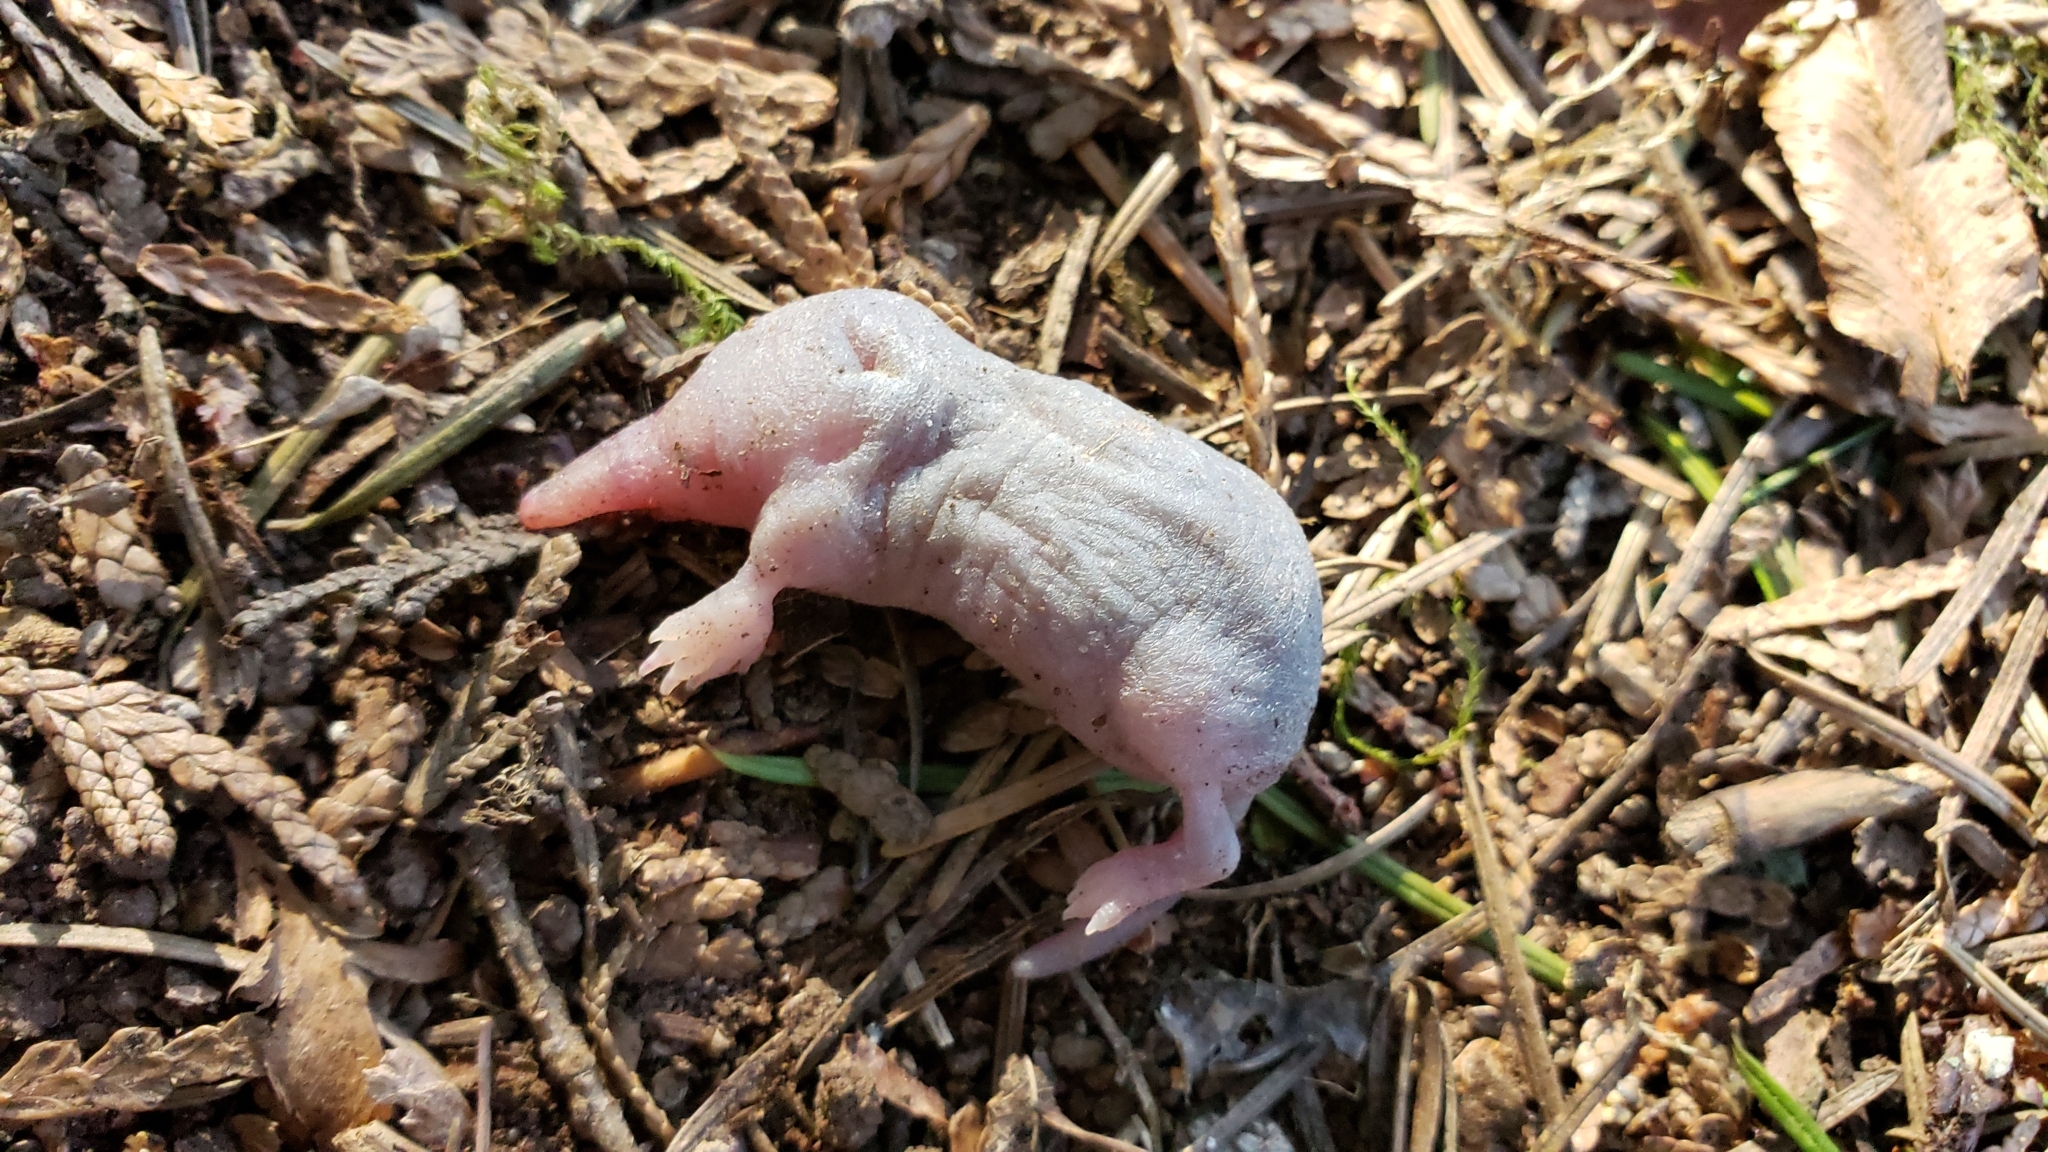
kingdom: Animalia
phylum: Chordata
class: Mammalia
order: Soricomorpha
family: Talpidae
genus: Neurotrichus
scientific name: Neurotrichus gibbsii
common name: American shrew mole
